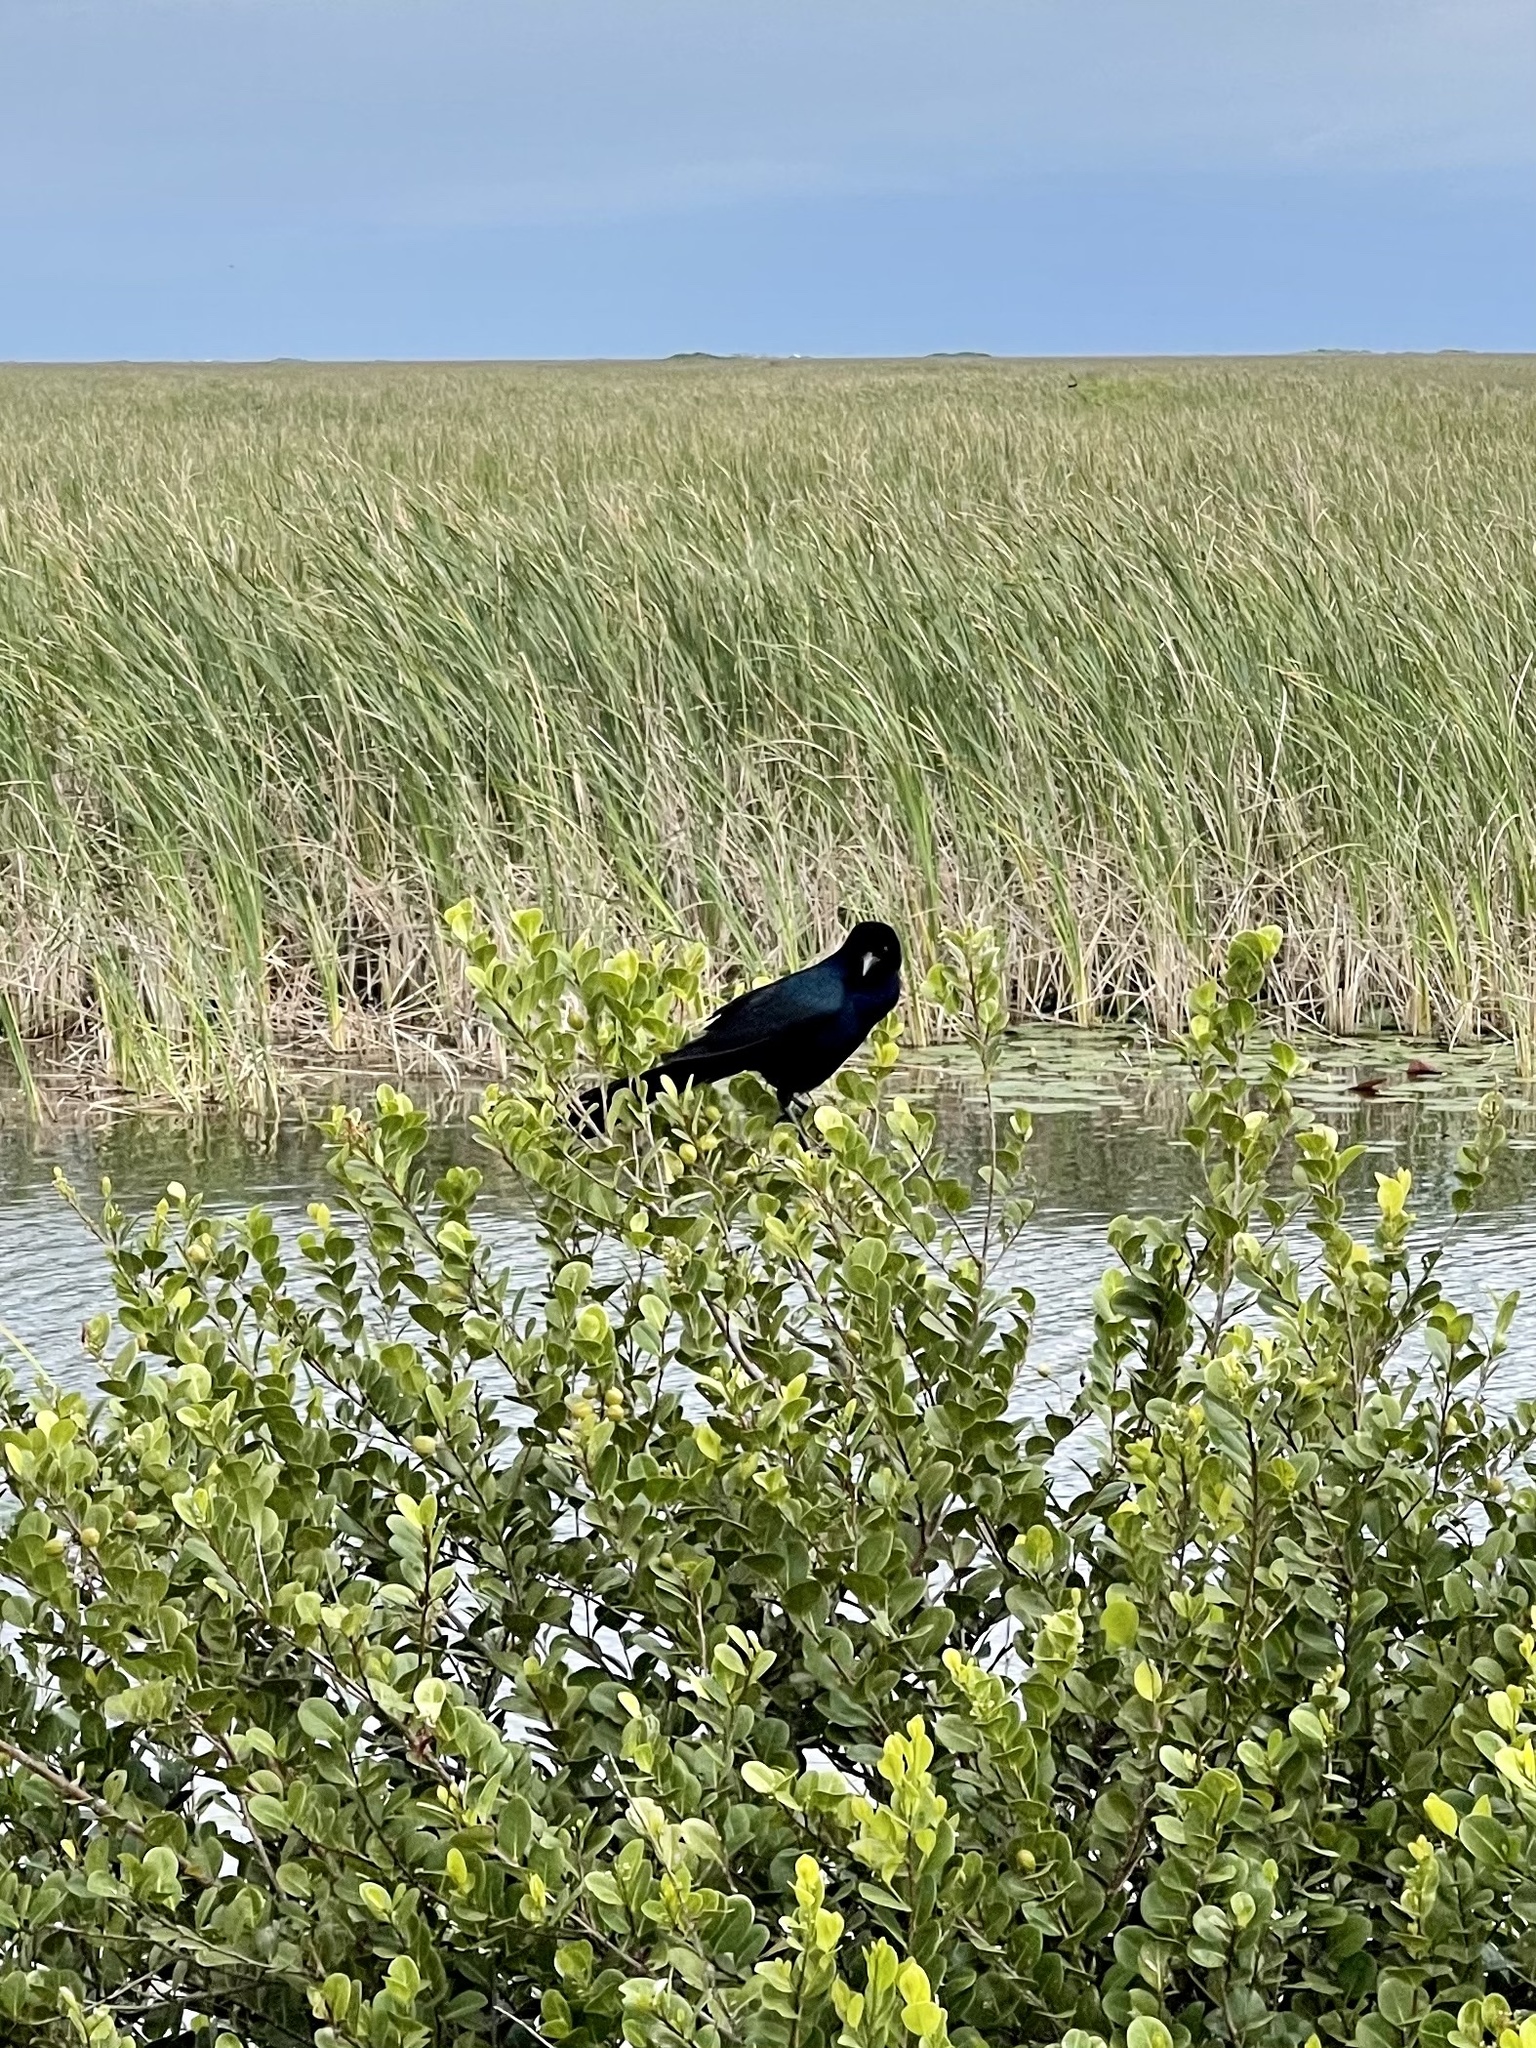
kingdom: Animalia
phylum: Chordata
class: Aves
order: Passeriformes
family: Icteridae
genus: Quiscalus
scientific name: Quiscalus major
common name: Boat-tailed grackle
